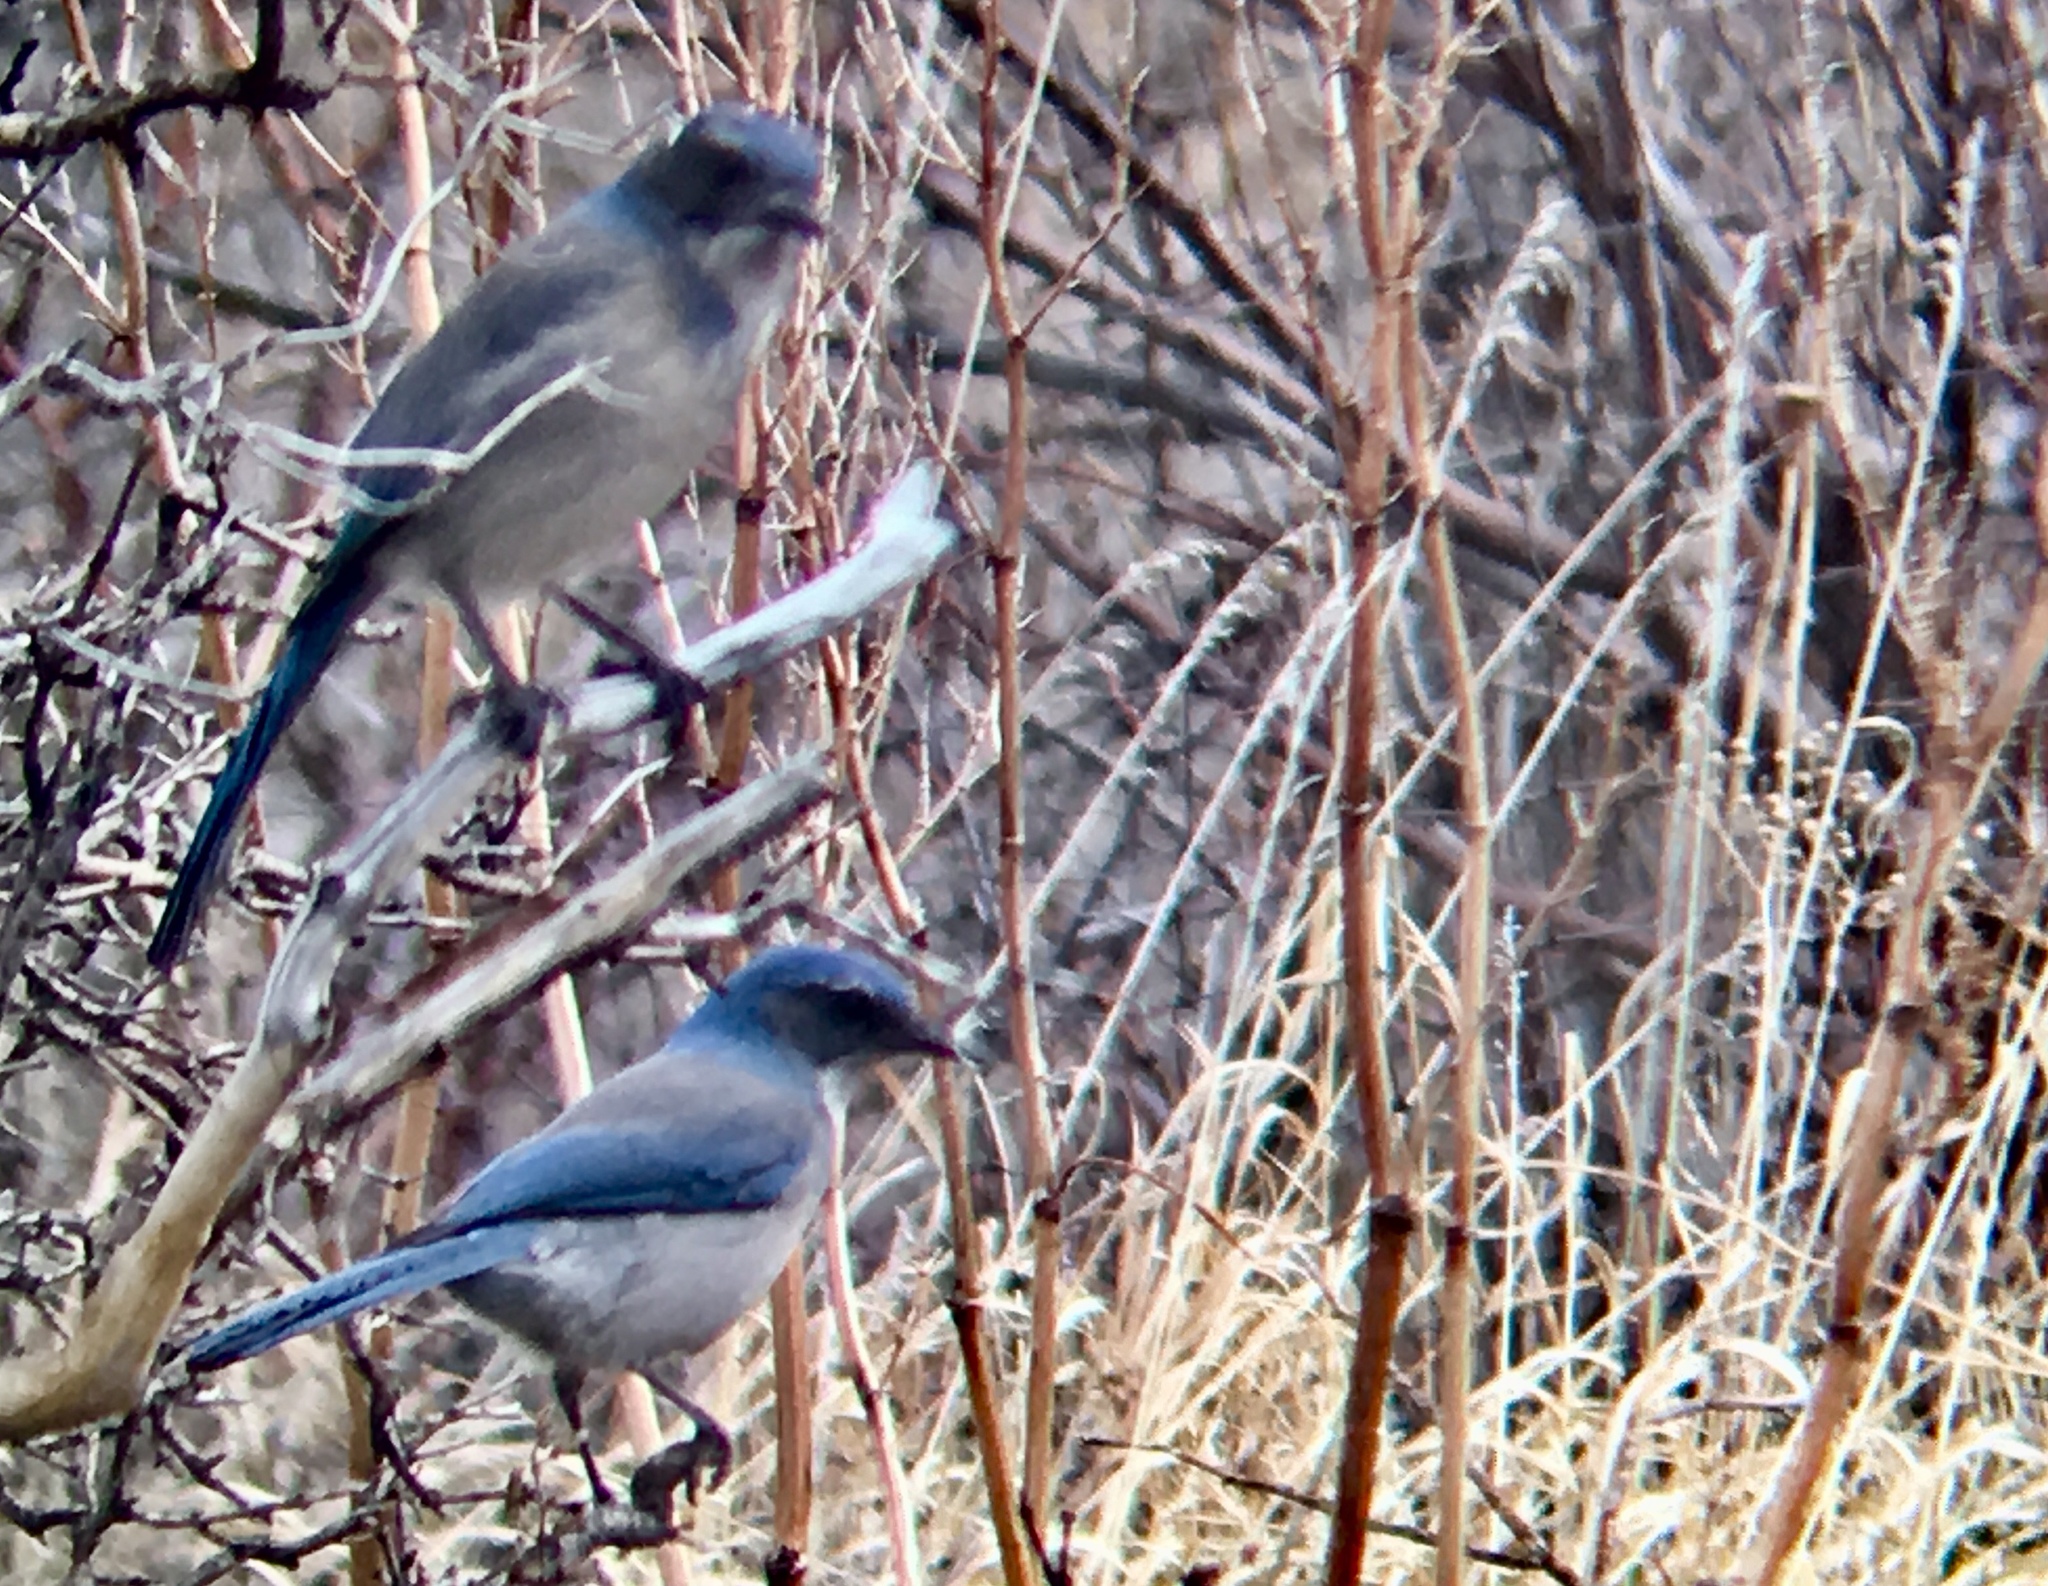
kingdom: Animalia
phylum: Chordata
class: Aves
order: Passeriformes
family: Corvidae
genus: Aphelocoma
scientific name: Aphelocoma woodhouseii
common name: Woodhouse's scrub-jay
